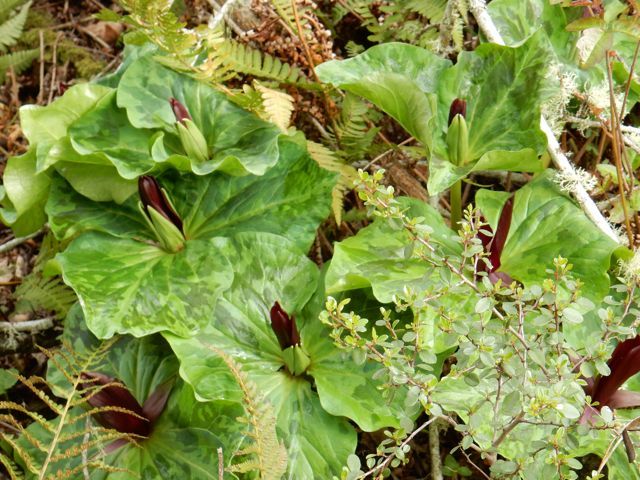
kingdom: Plantae
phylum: Tracheophyta
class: Liliopsida
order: Liliales
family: Melanthiaceae
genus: Trillium
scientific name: Trillium chloropetalum
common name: Giant trillium
